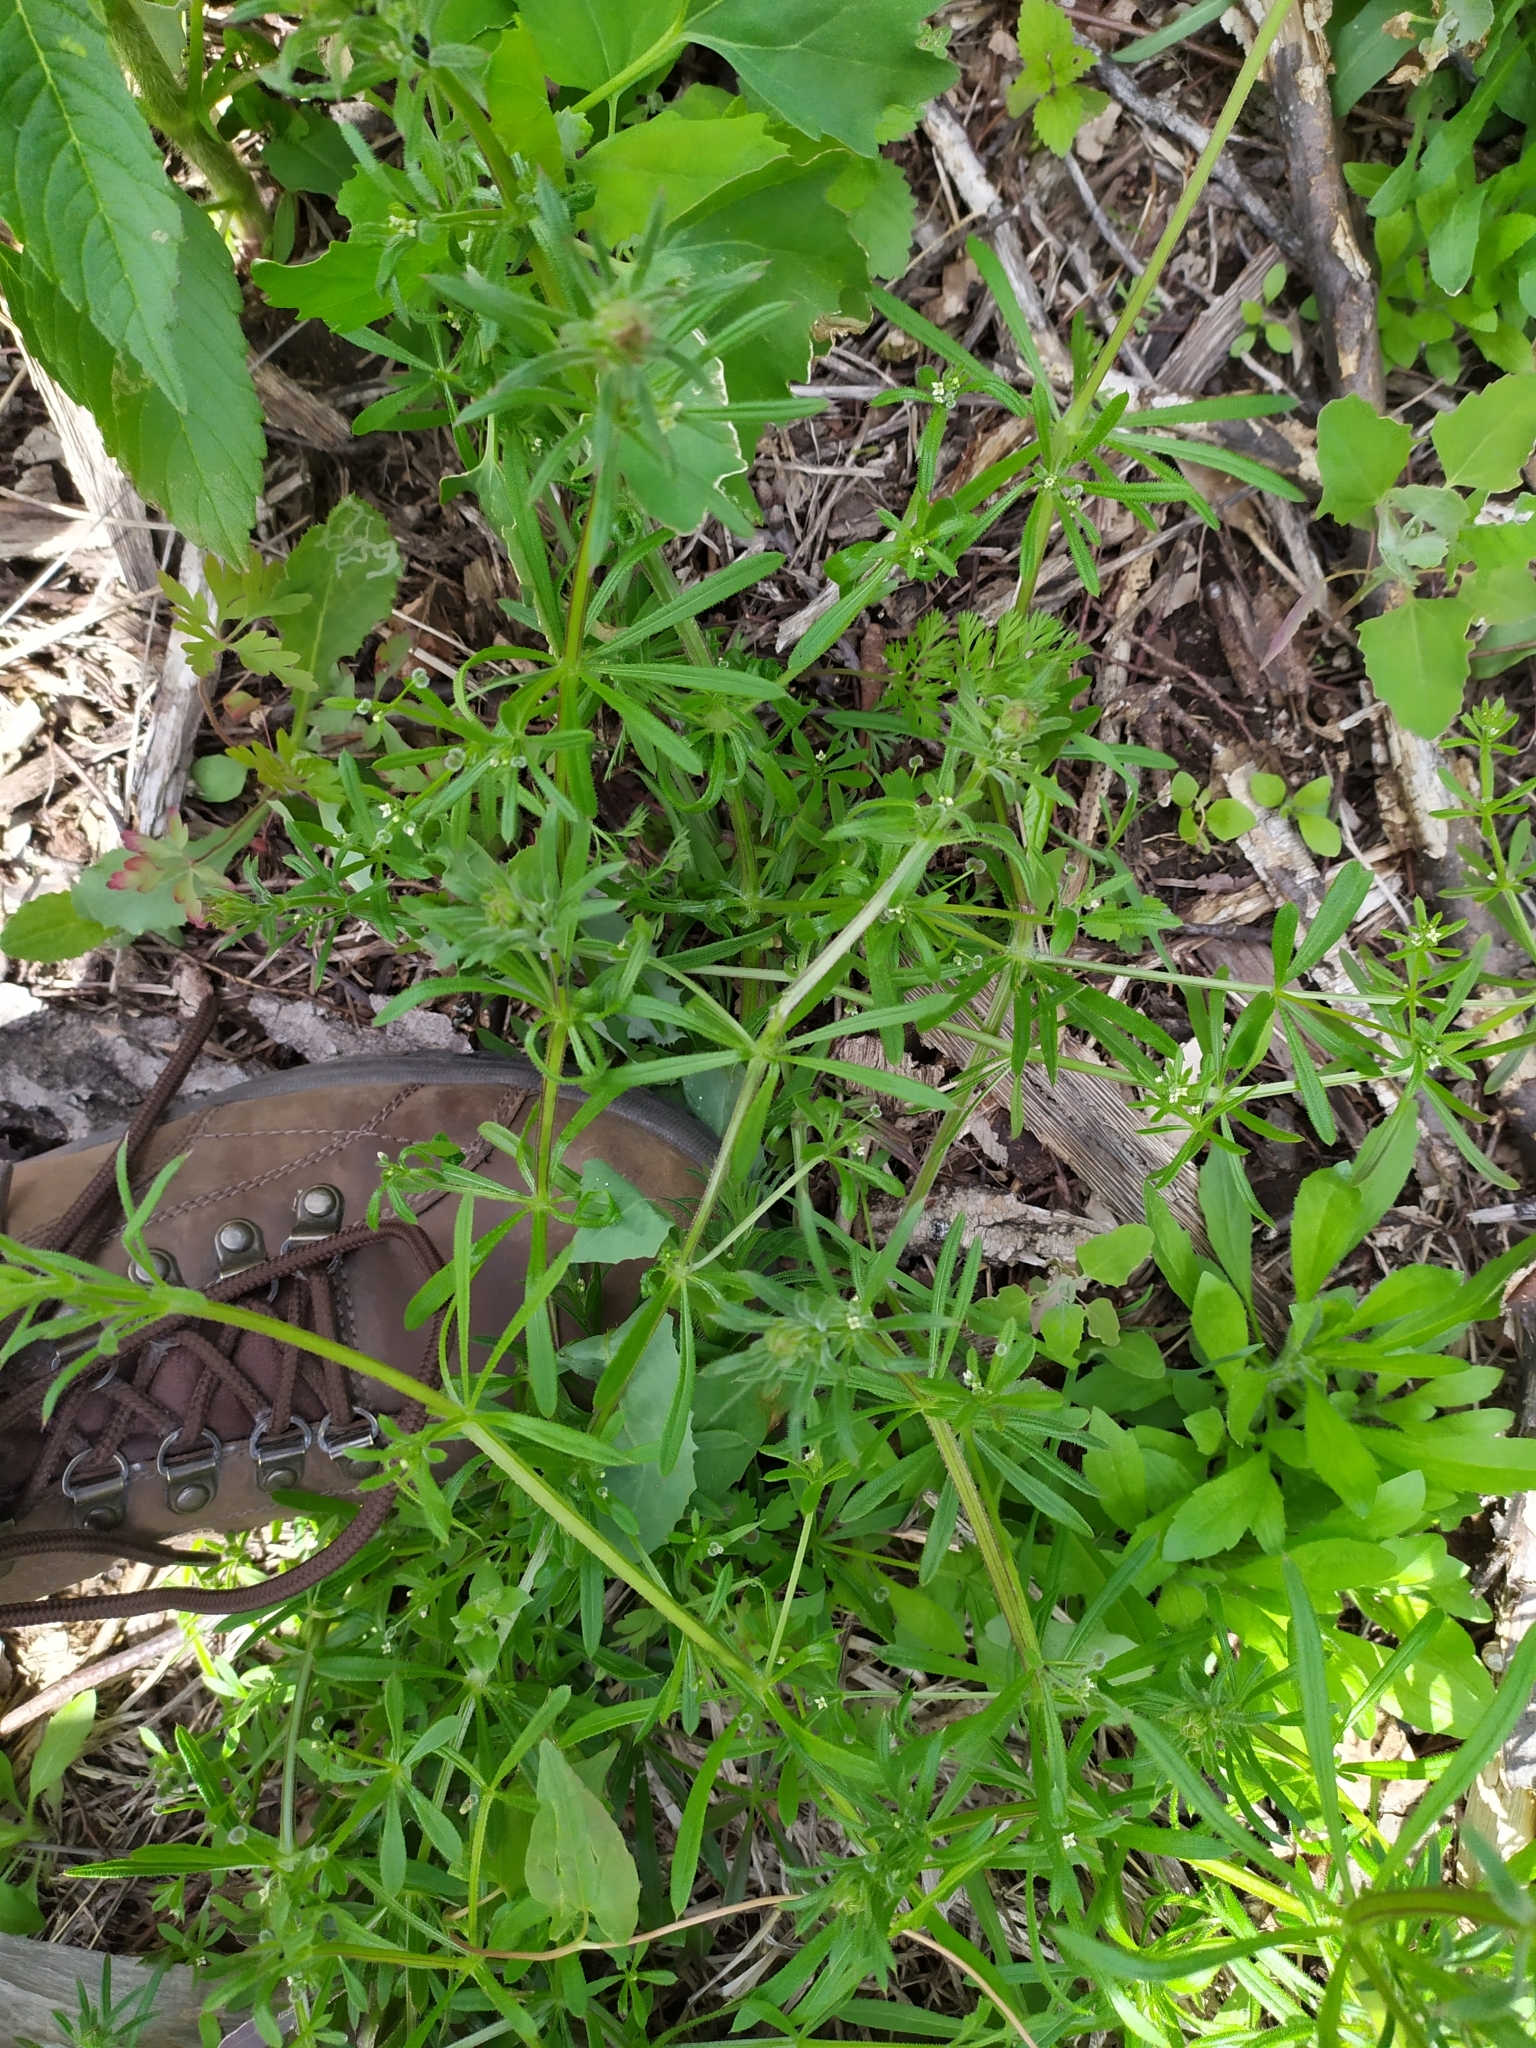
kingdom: Plantae
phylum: Tracheophyta
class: Magnoliopsida
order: Gentianales
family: Rubiaceae
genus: Galium
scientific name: Galium aparine
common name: Cleavers
